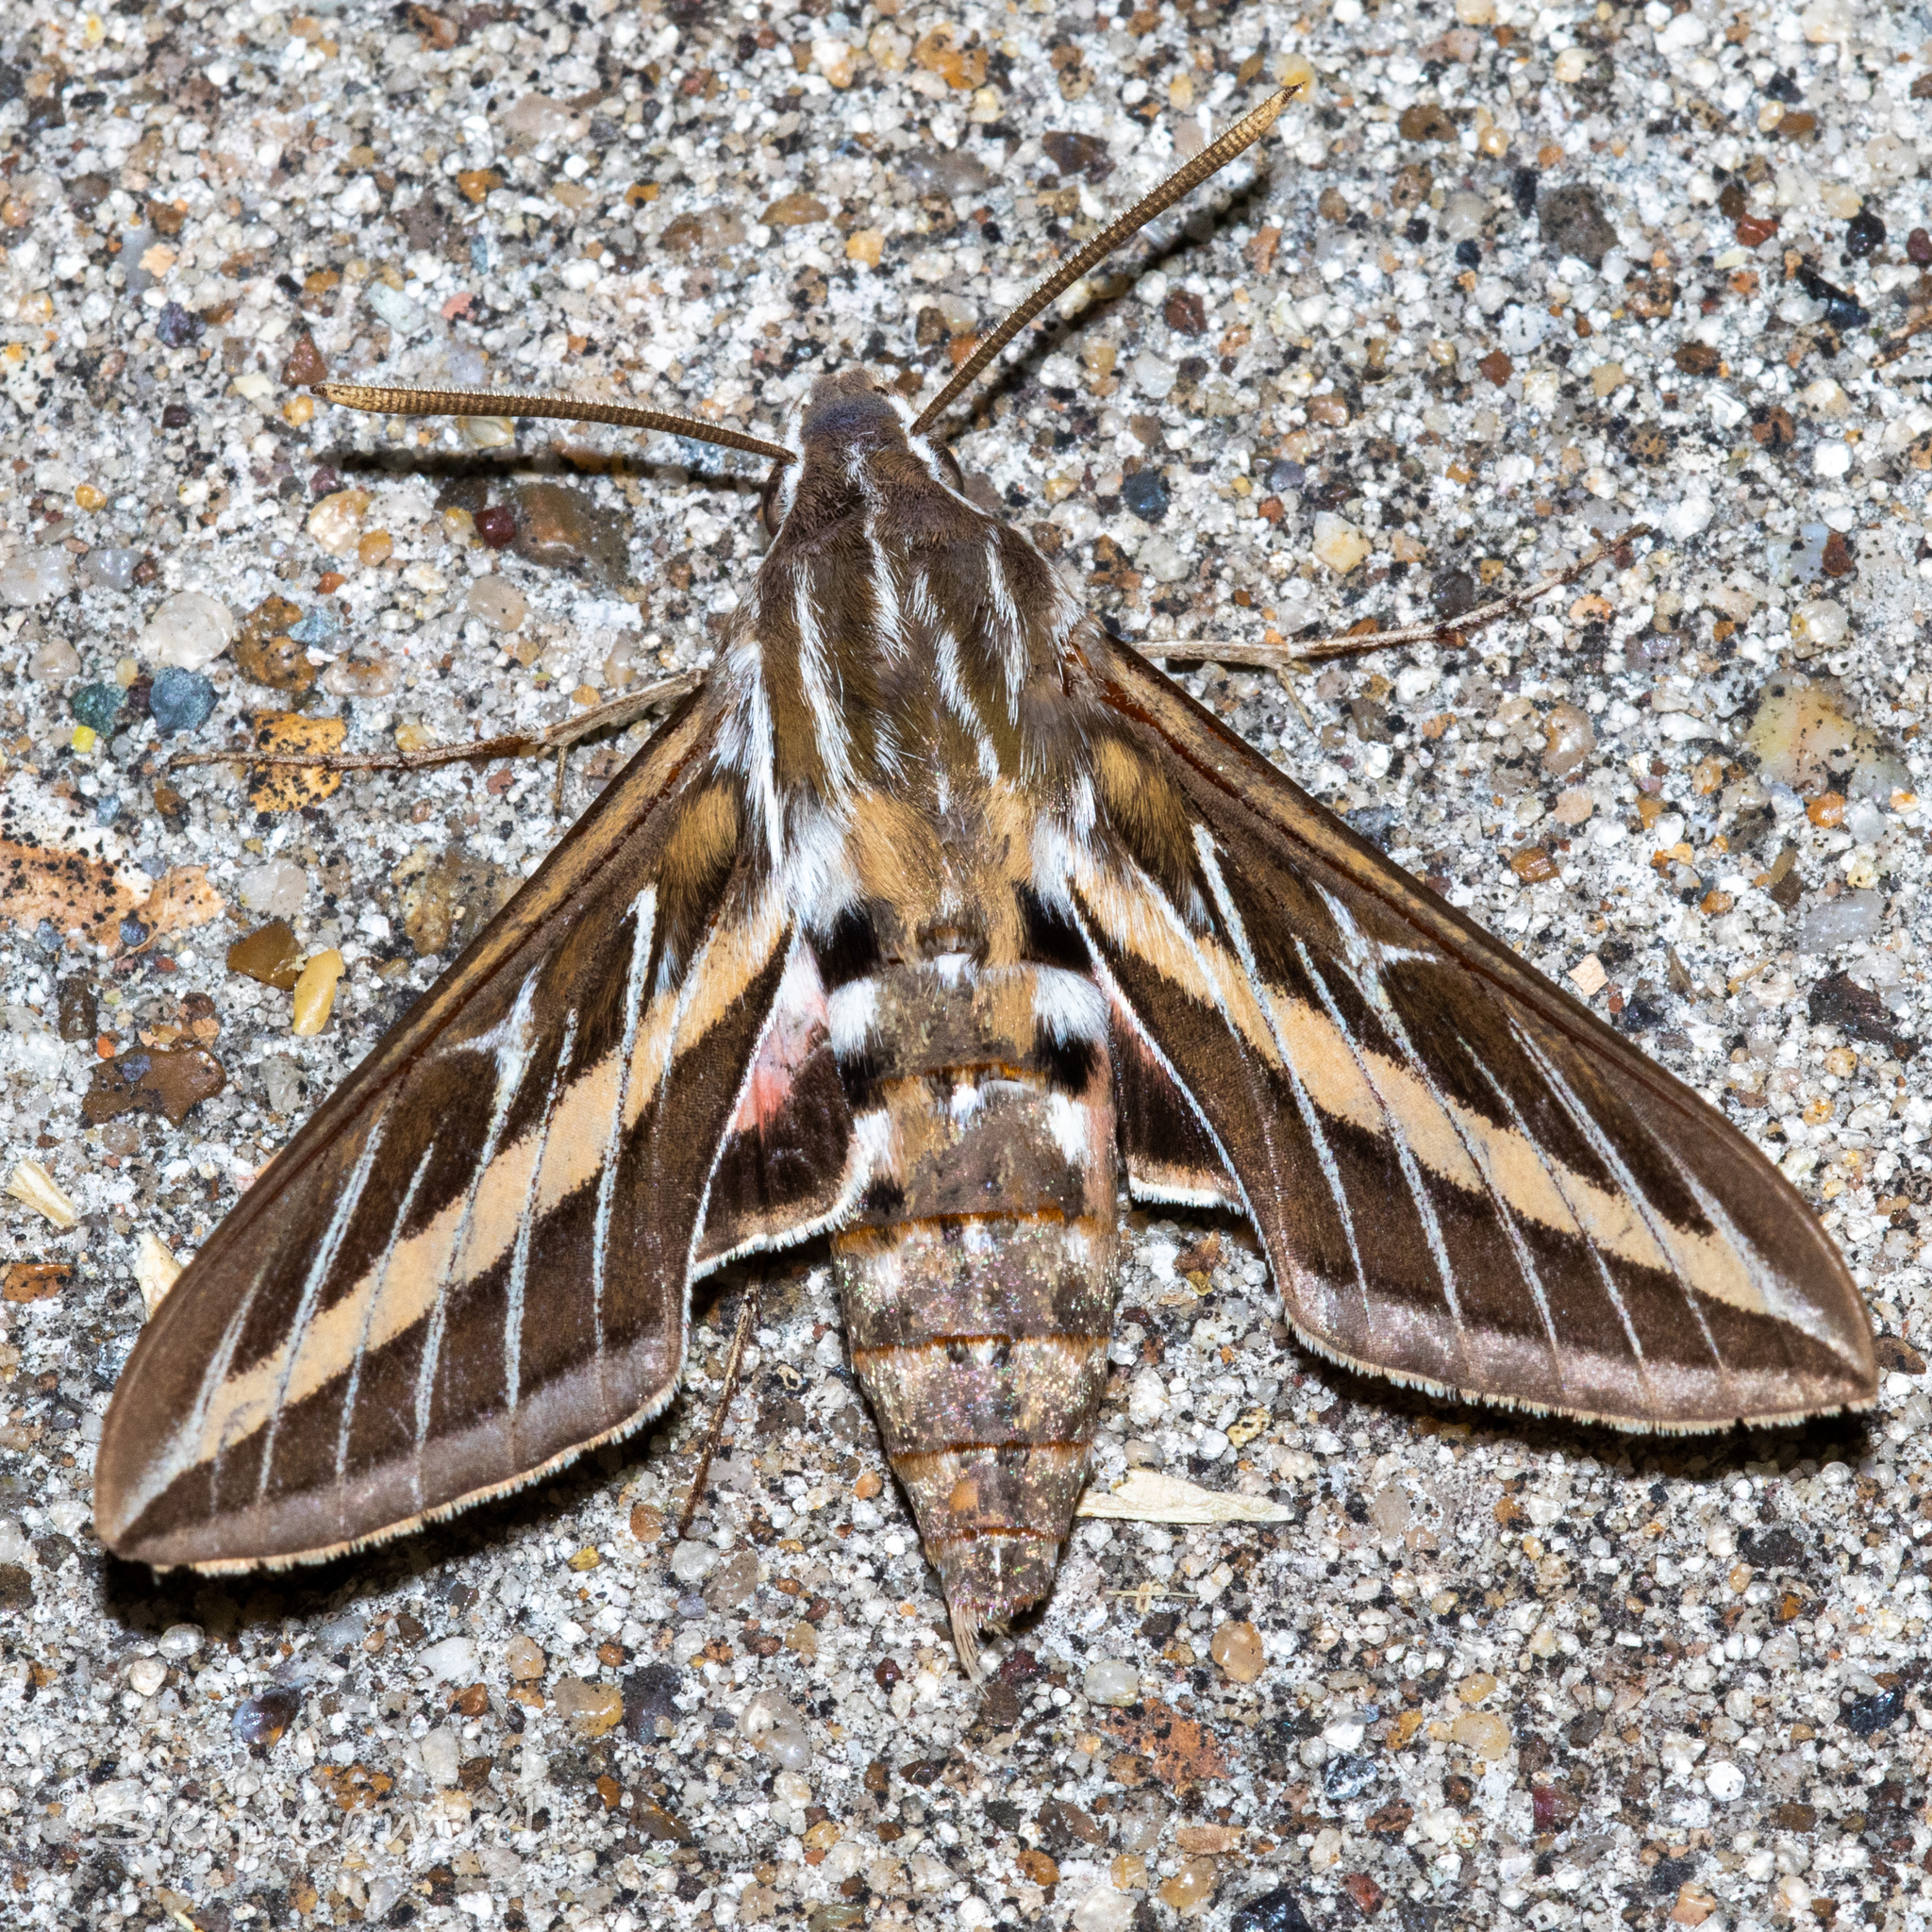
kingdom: Animalia
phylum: Arthropoda
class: Insecta
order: Lepidoptera
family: Sphingidae
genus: Hyles
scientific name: Hyles lineata
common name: White-lined sphinx
